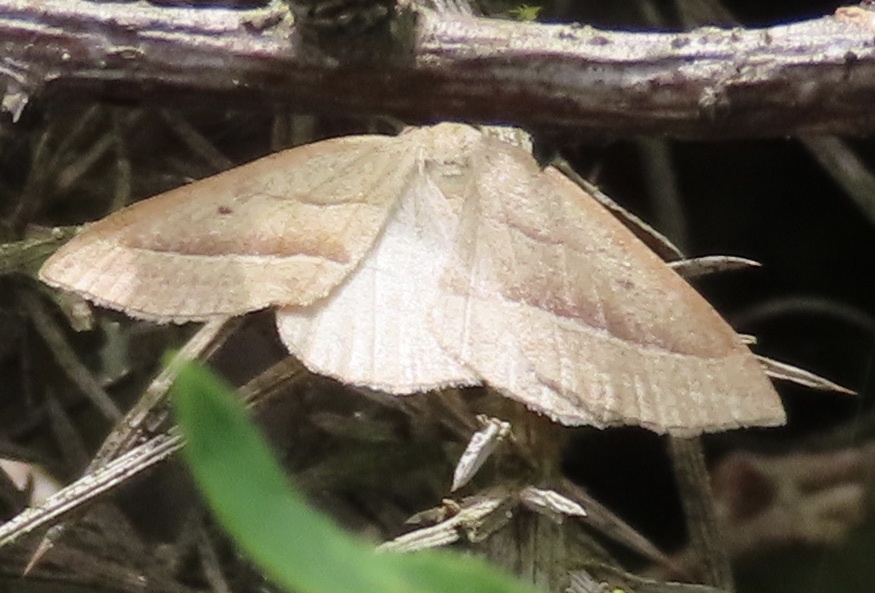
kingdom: Animalia
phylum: Arthropoda
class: Insecta
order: Lepidoptera
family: Pterophoridae
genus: Pterophorus
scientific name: Pterophorus Petrophora chlorosata
